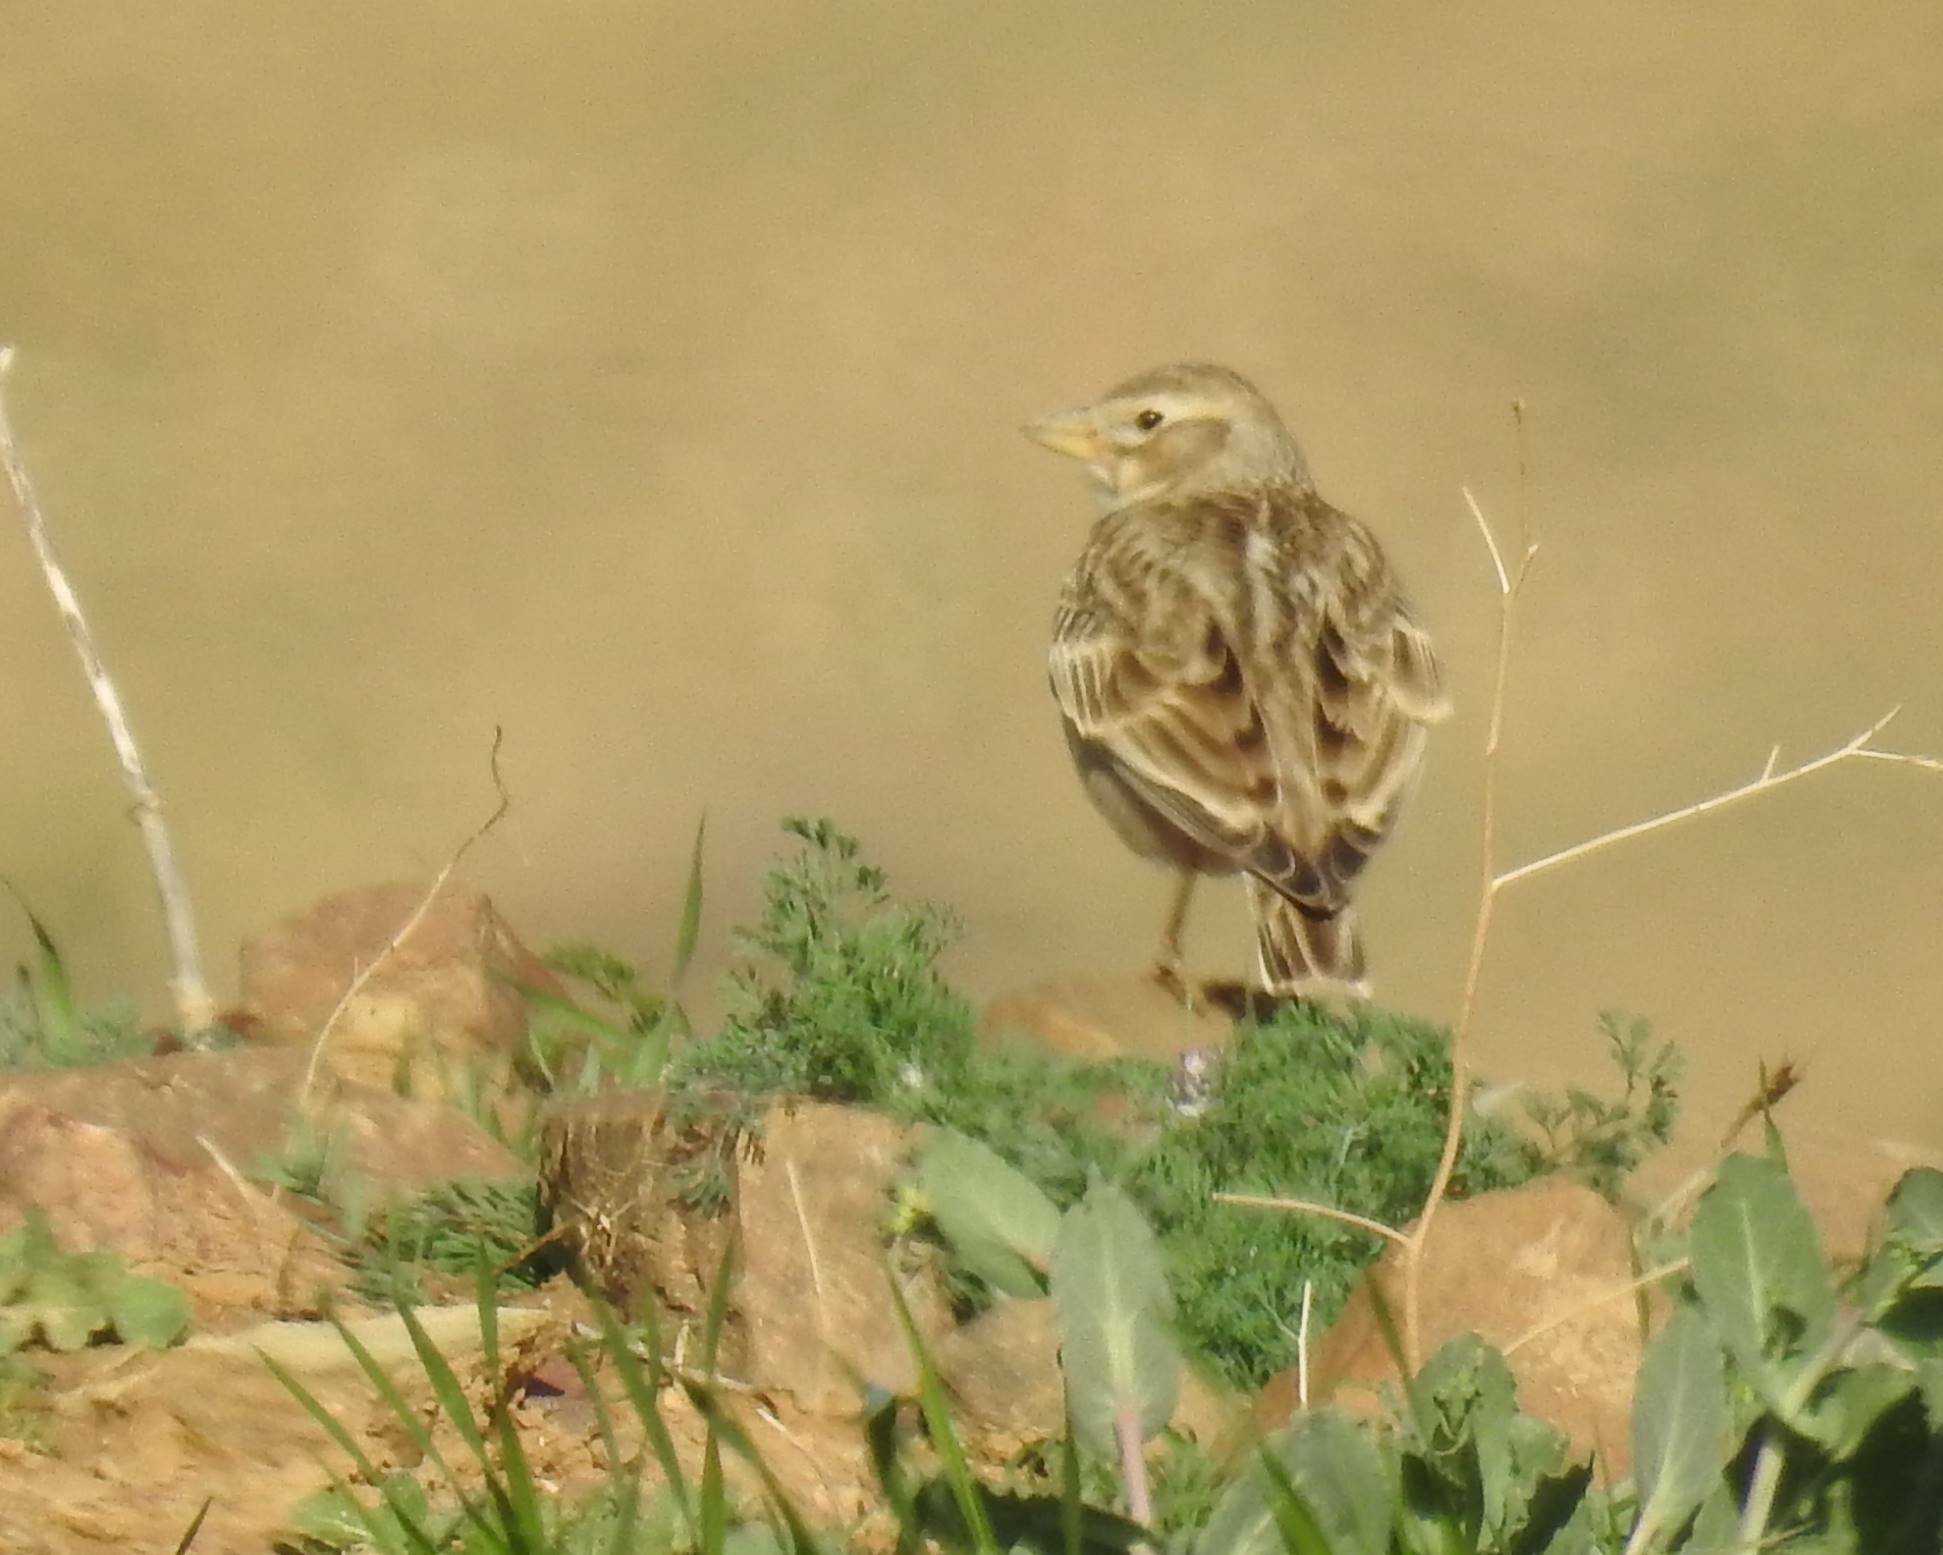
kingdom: Animalia
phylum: Chordata
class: Aves
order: Passeriformes
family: Alaudidae
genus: Melanocorypha
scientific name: Melanocorypha calandra
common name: Calandra lark
